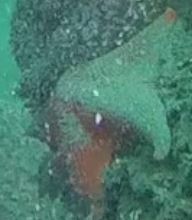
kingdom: Animalia
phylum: Echinodermata
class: Asteroidea
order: Valvatida
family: Asterinidae
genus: Patiria
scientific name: Patiria miniata
